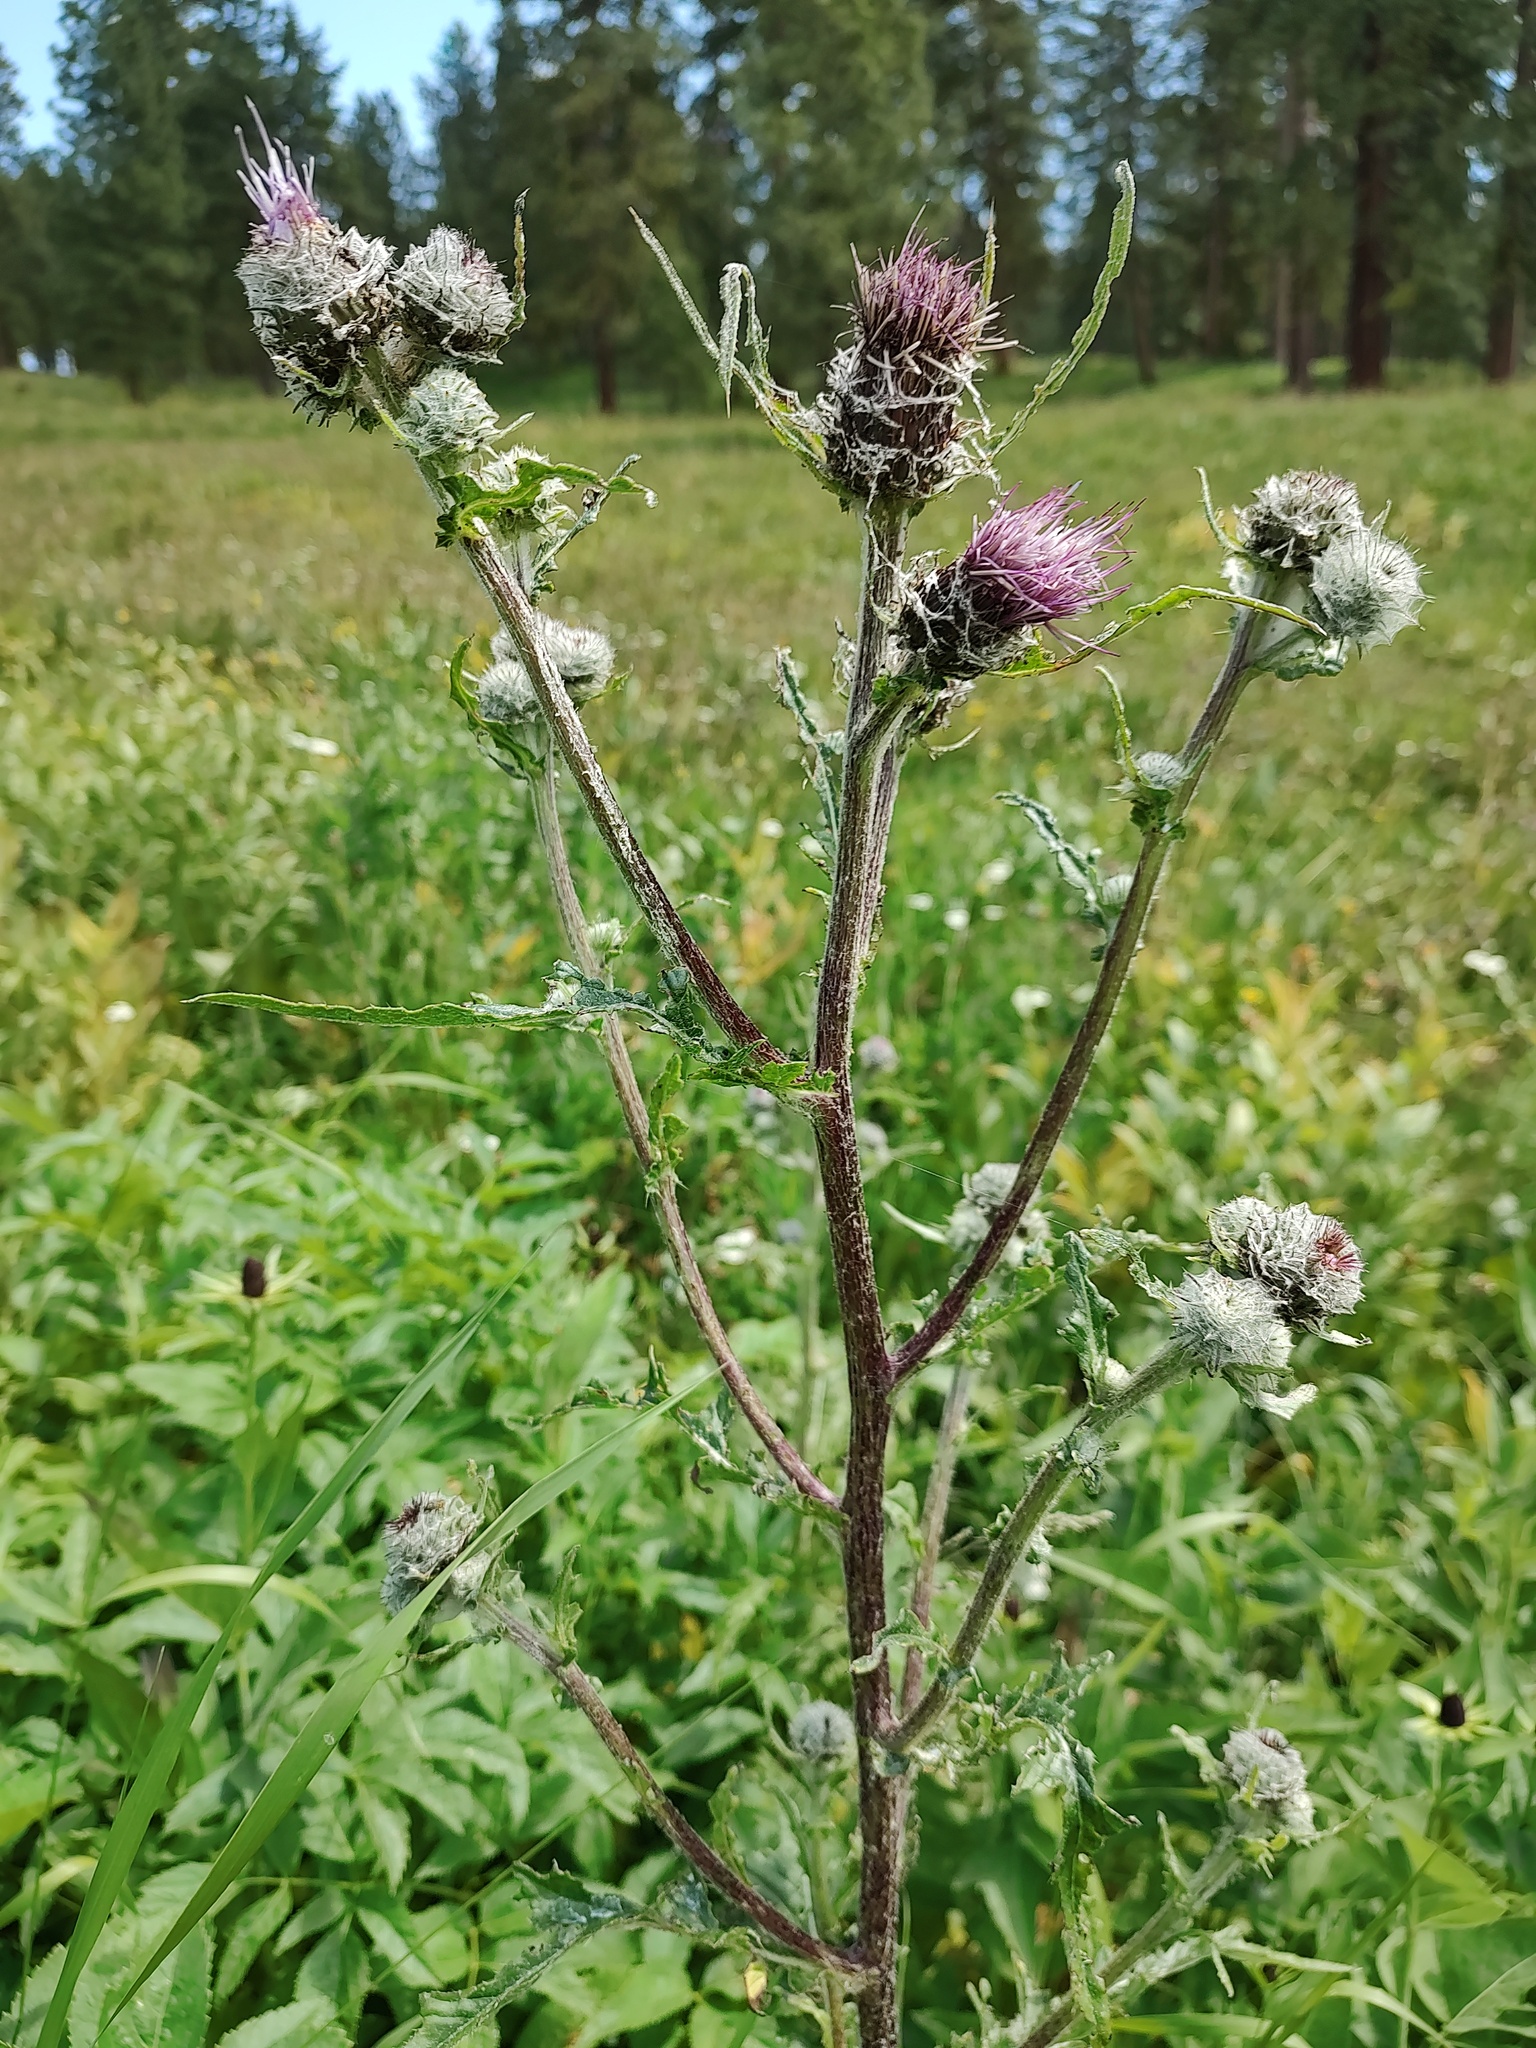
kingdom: Plantae
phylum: Tracheophyta
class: Magnoliopsida
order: Asterales
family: Asteraceae
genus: Cirsium
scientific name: Cirsium edule
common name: Indian thistle
